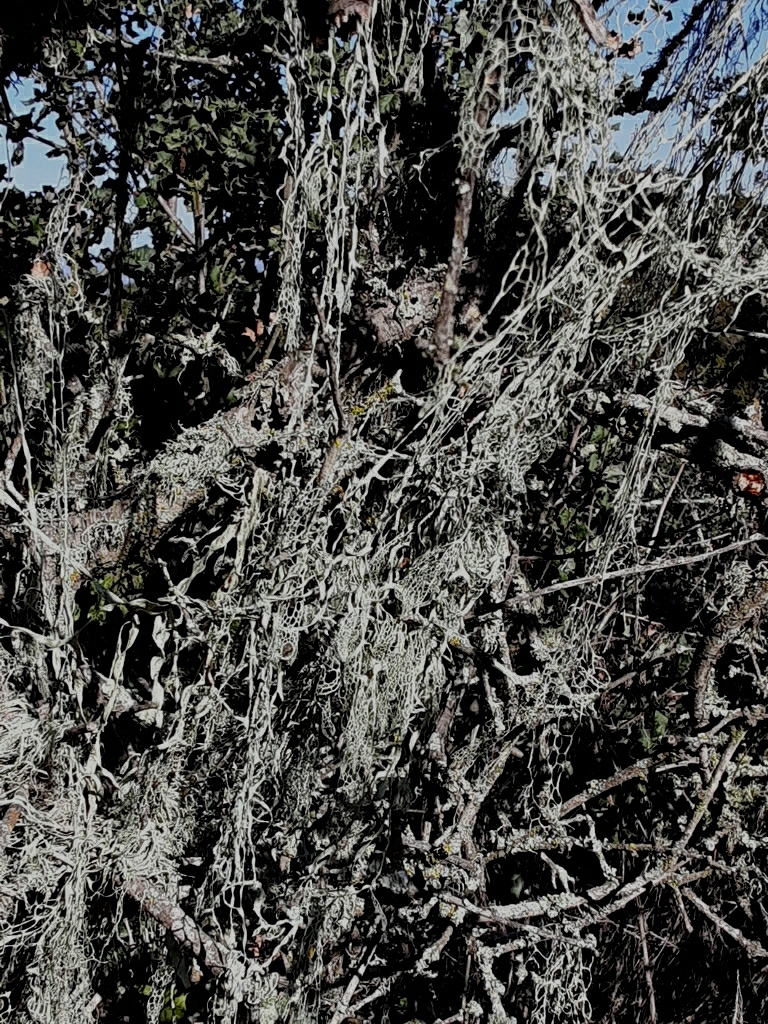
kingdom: Fungi
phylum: Ascomycota
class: Lecanoromycetes
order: Lecanorales
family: Ramalinaceae
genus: Ramalina
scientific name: Ramalina menziesii
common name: Lace lichen
